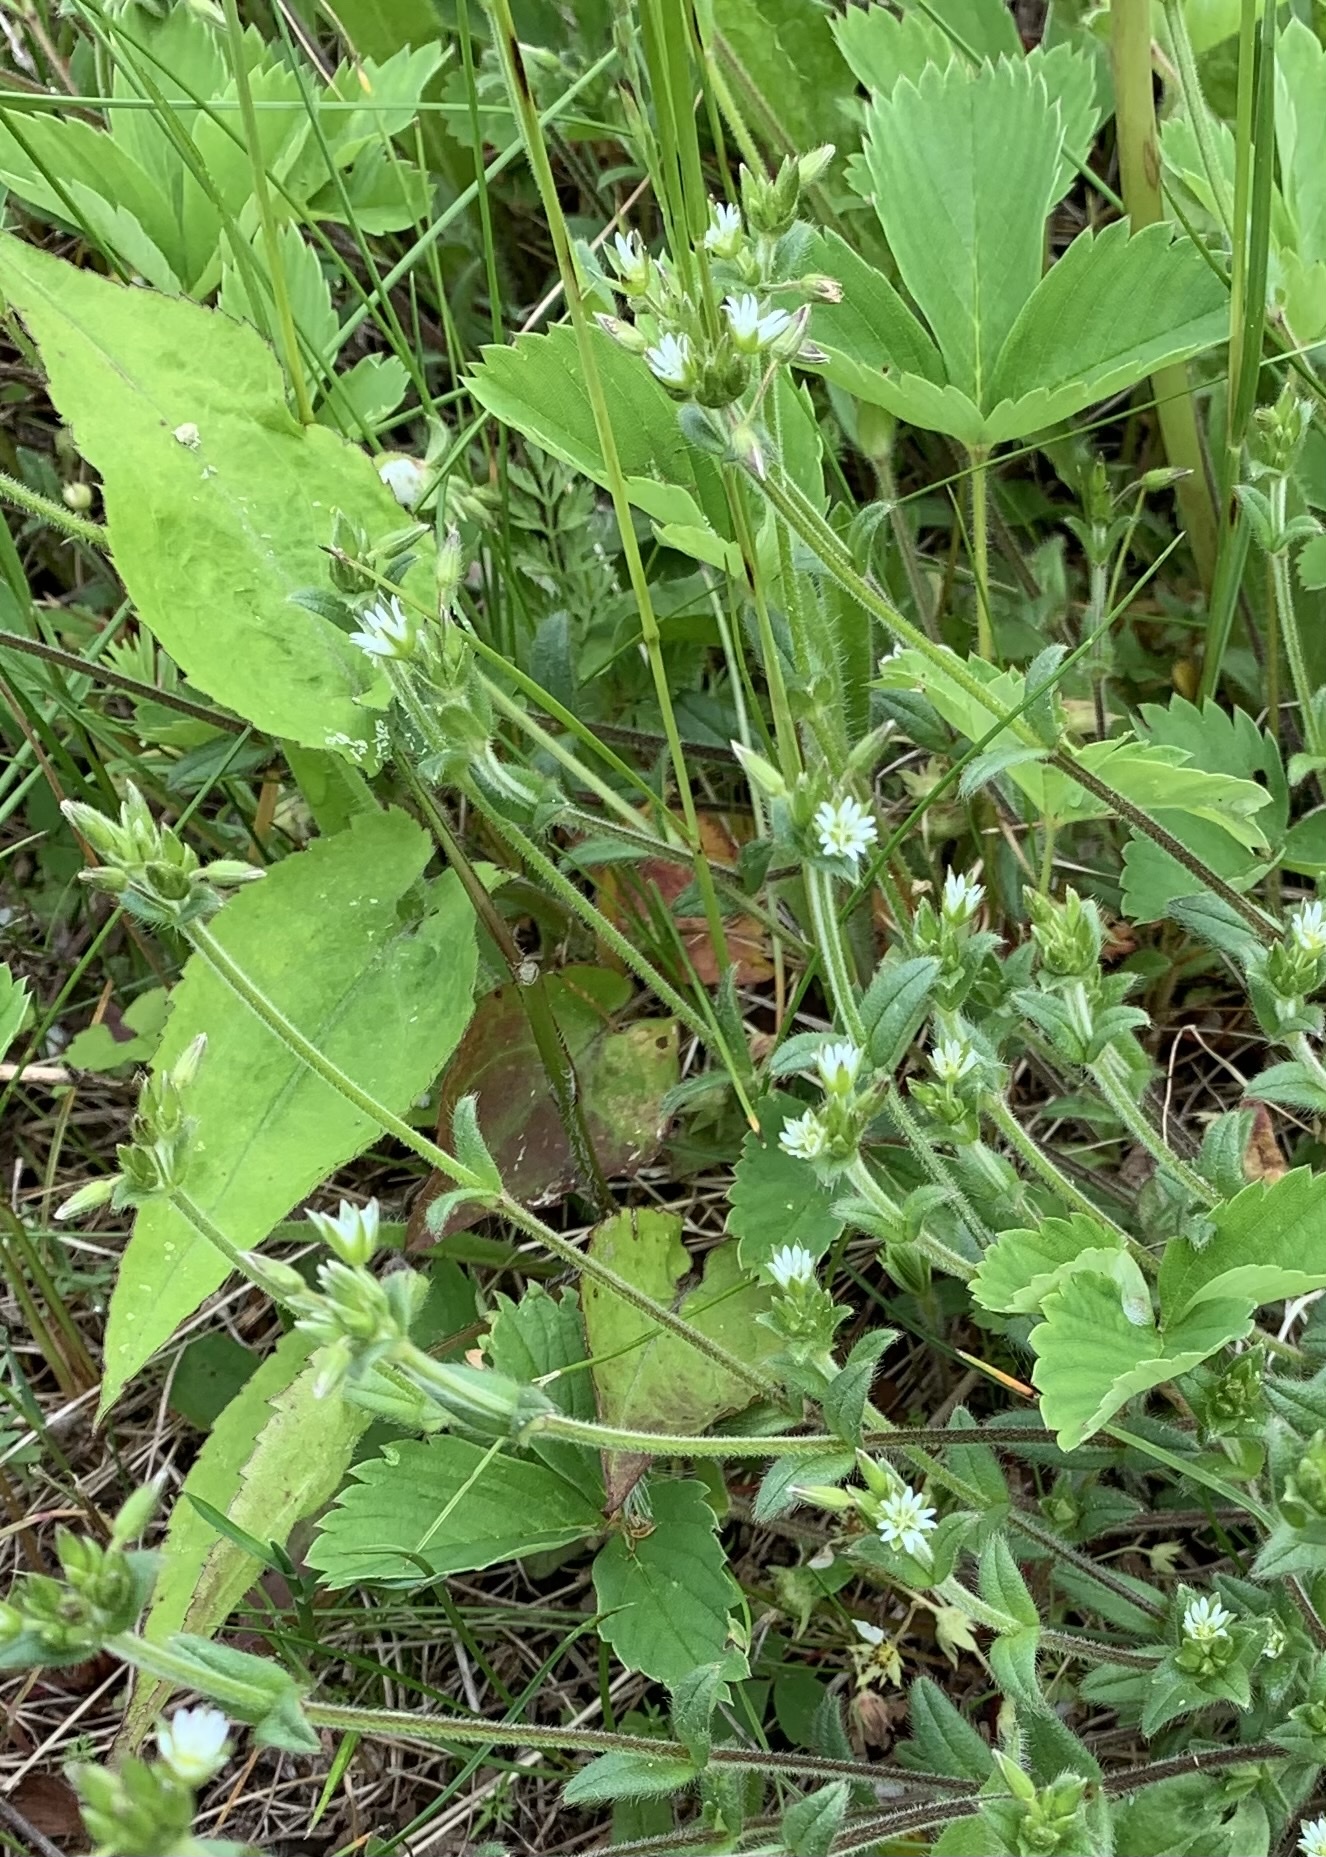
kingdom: Plantae
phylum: Tracheophyta
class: Magnoliopsida
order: Caryophyllales
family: Caryophyllaceae
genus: Cerastium
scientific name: Cerastium fontanum
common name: Common mouse-ear
